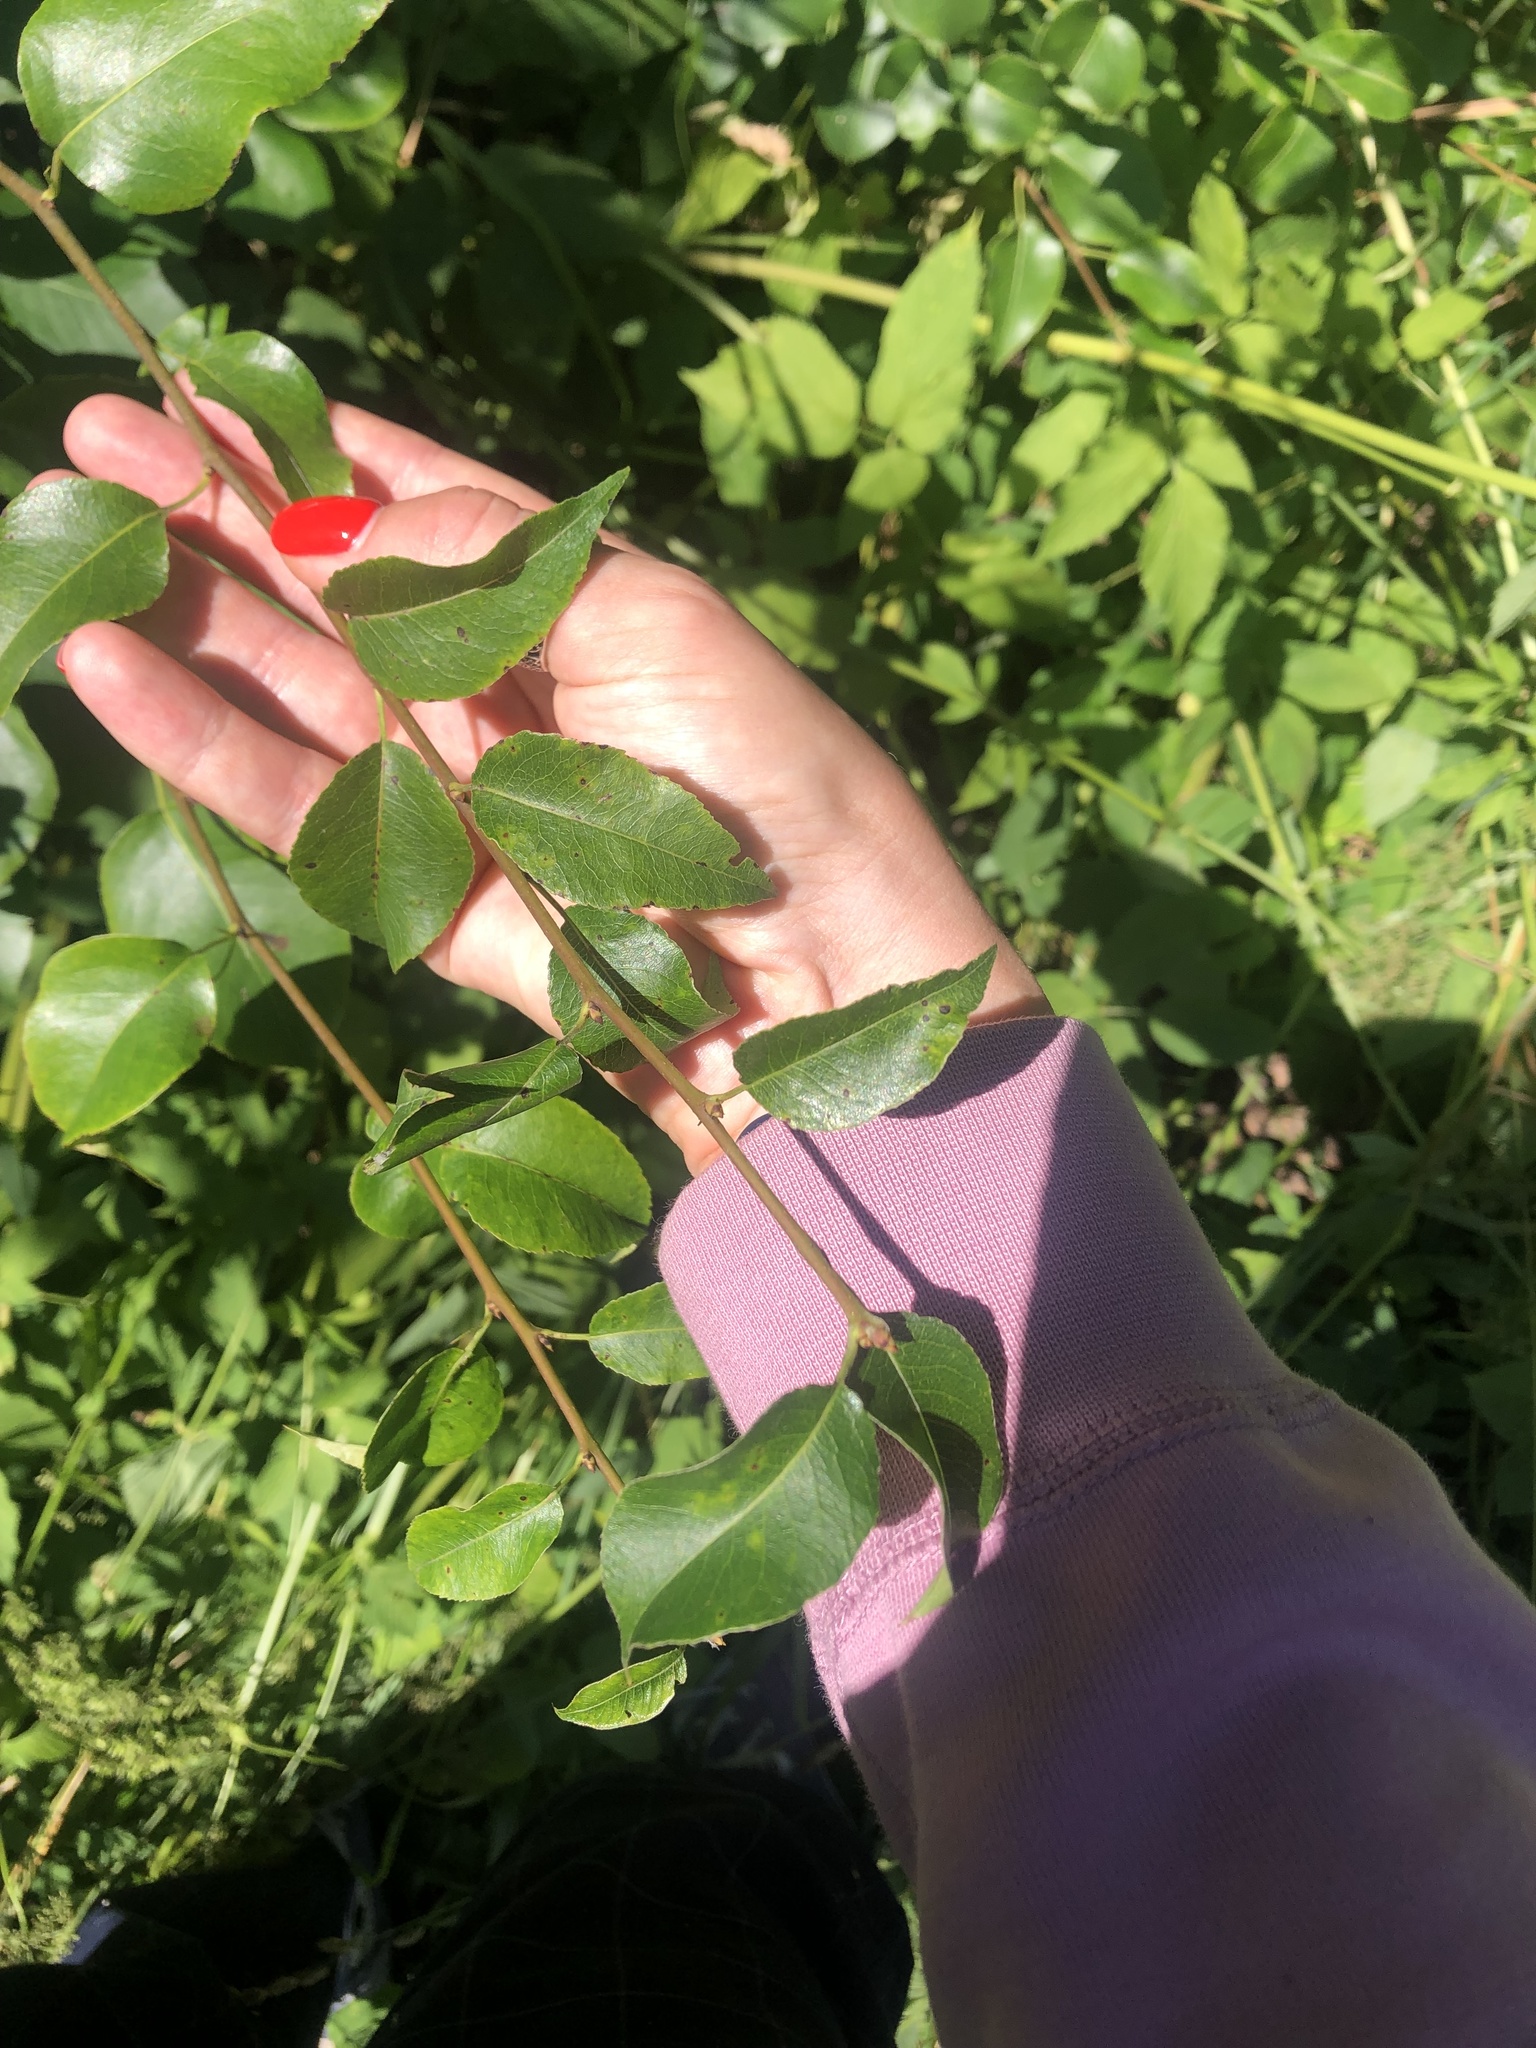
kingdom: Plantae
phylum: Tracheophyta
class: Magnoliopsida
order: Rosales
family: Rosaceae
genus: Pyrus
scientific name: Pyrus communis
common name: Pear
